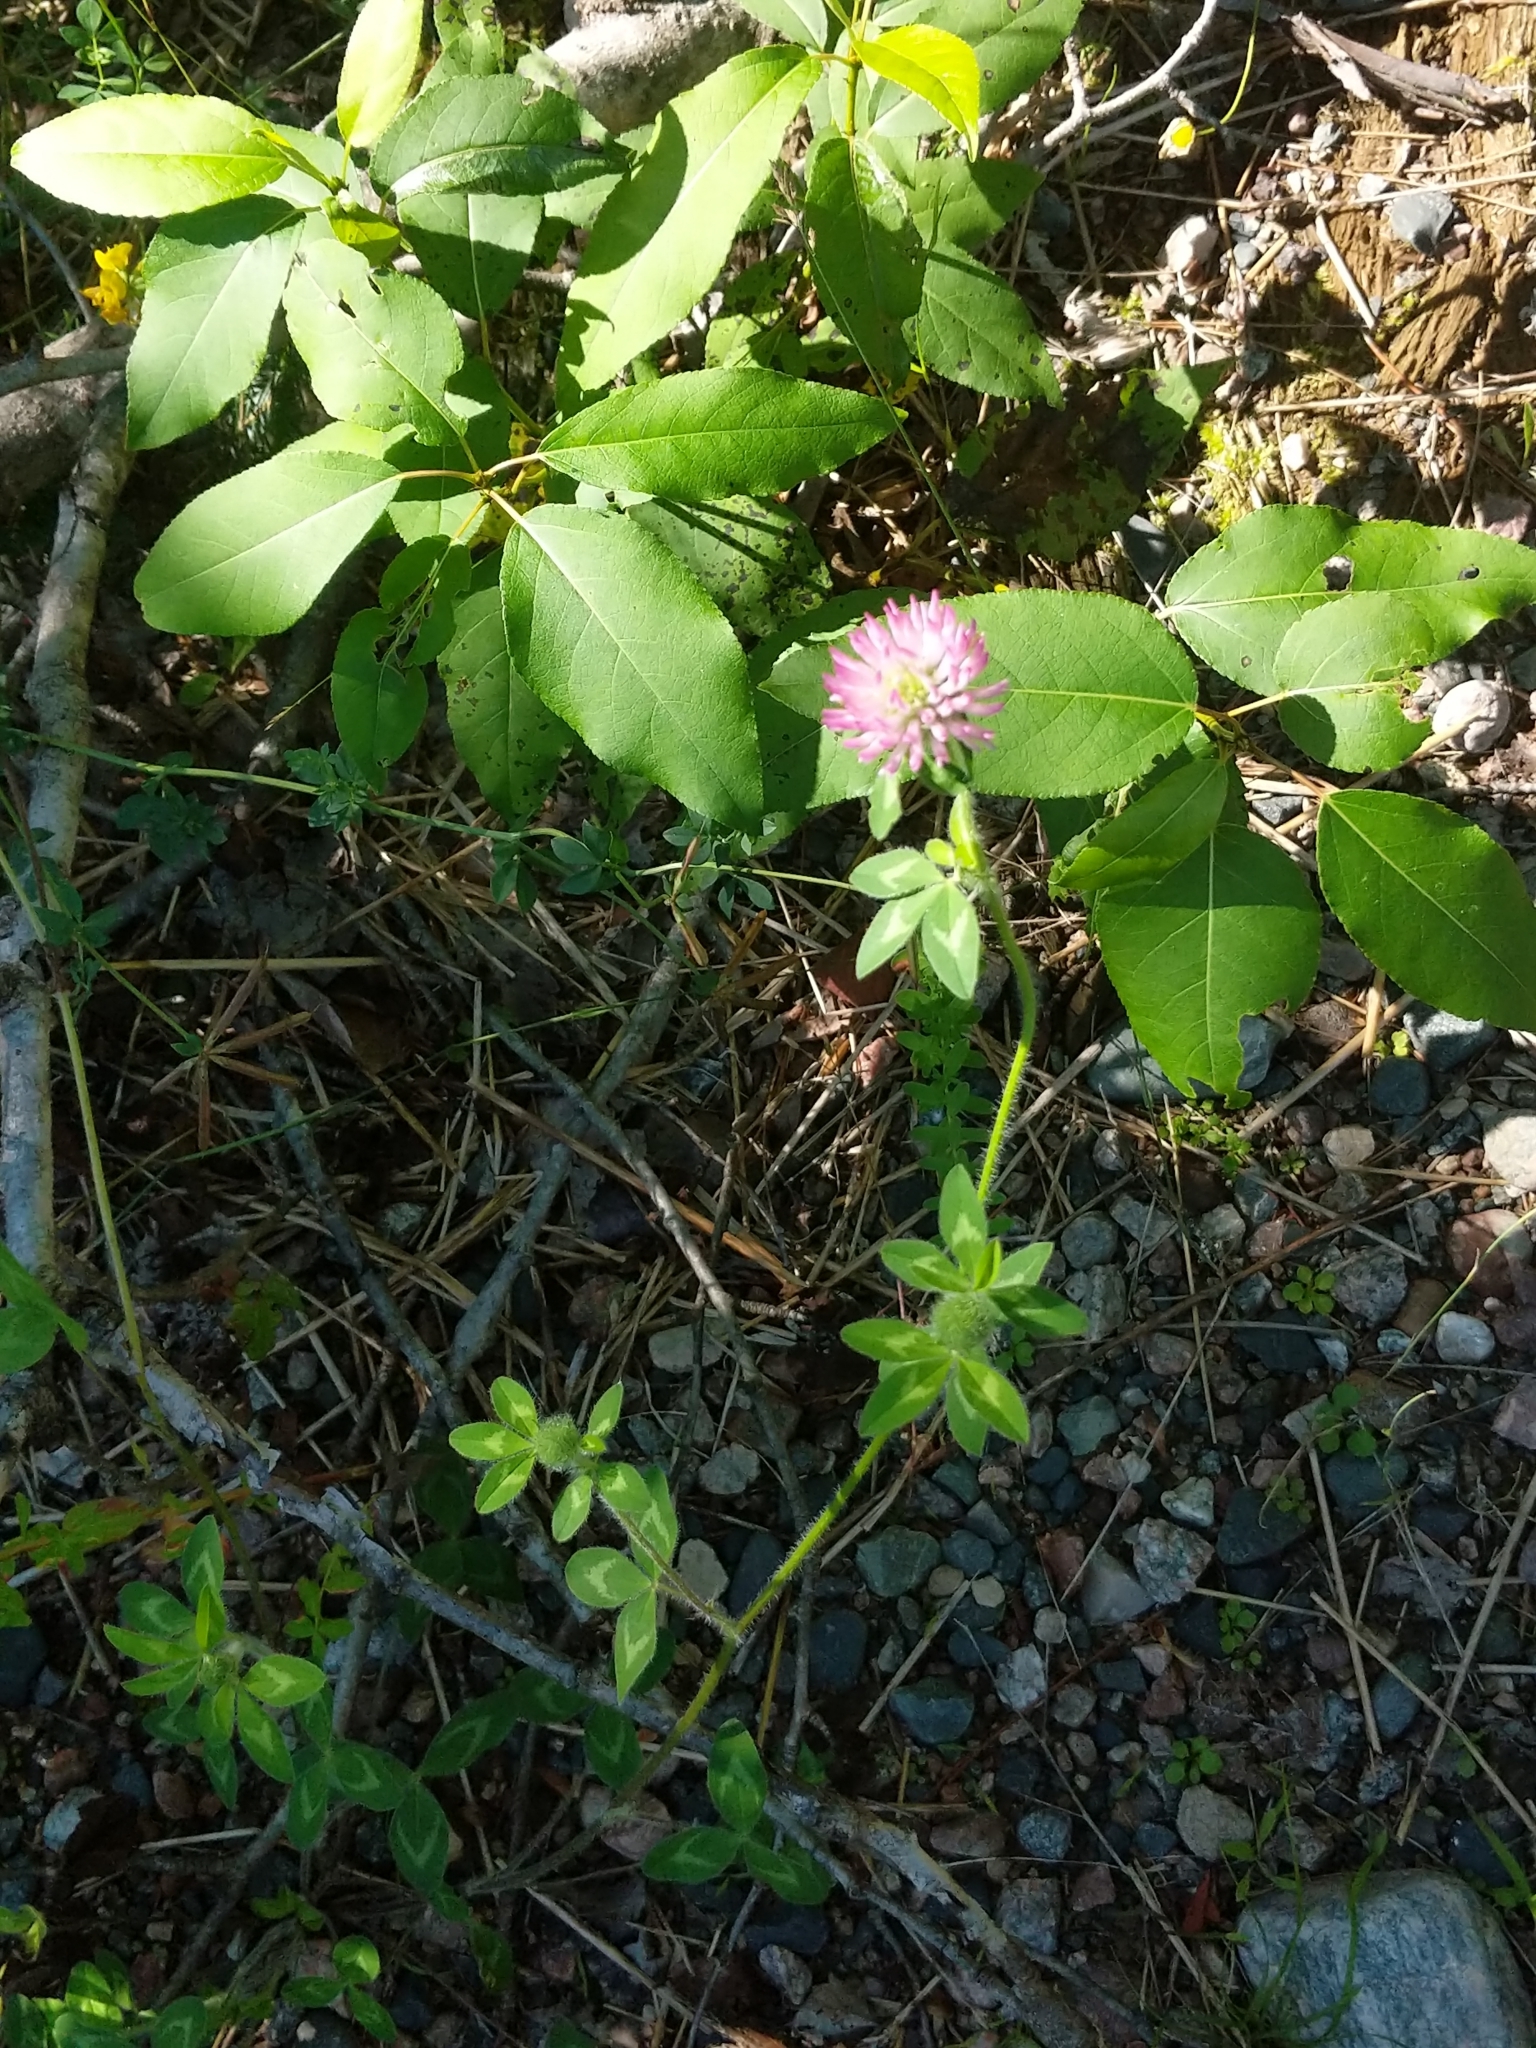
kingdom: Plantae
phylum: Tracheophyta
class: Magnoliopsida
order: Fabales
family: Fabaceae
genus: Trifolium
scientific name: Trifolium pratense
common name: Red clover
